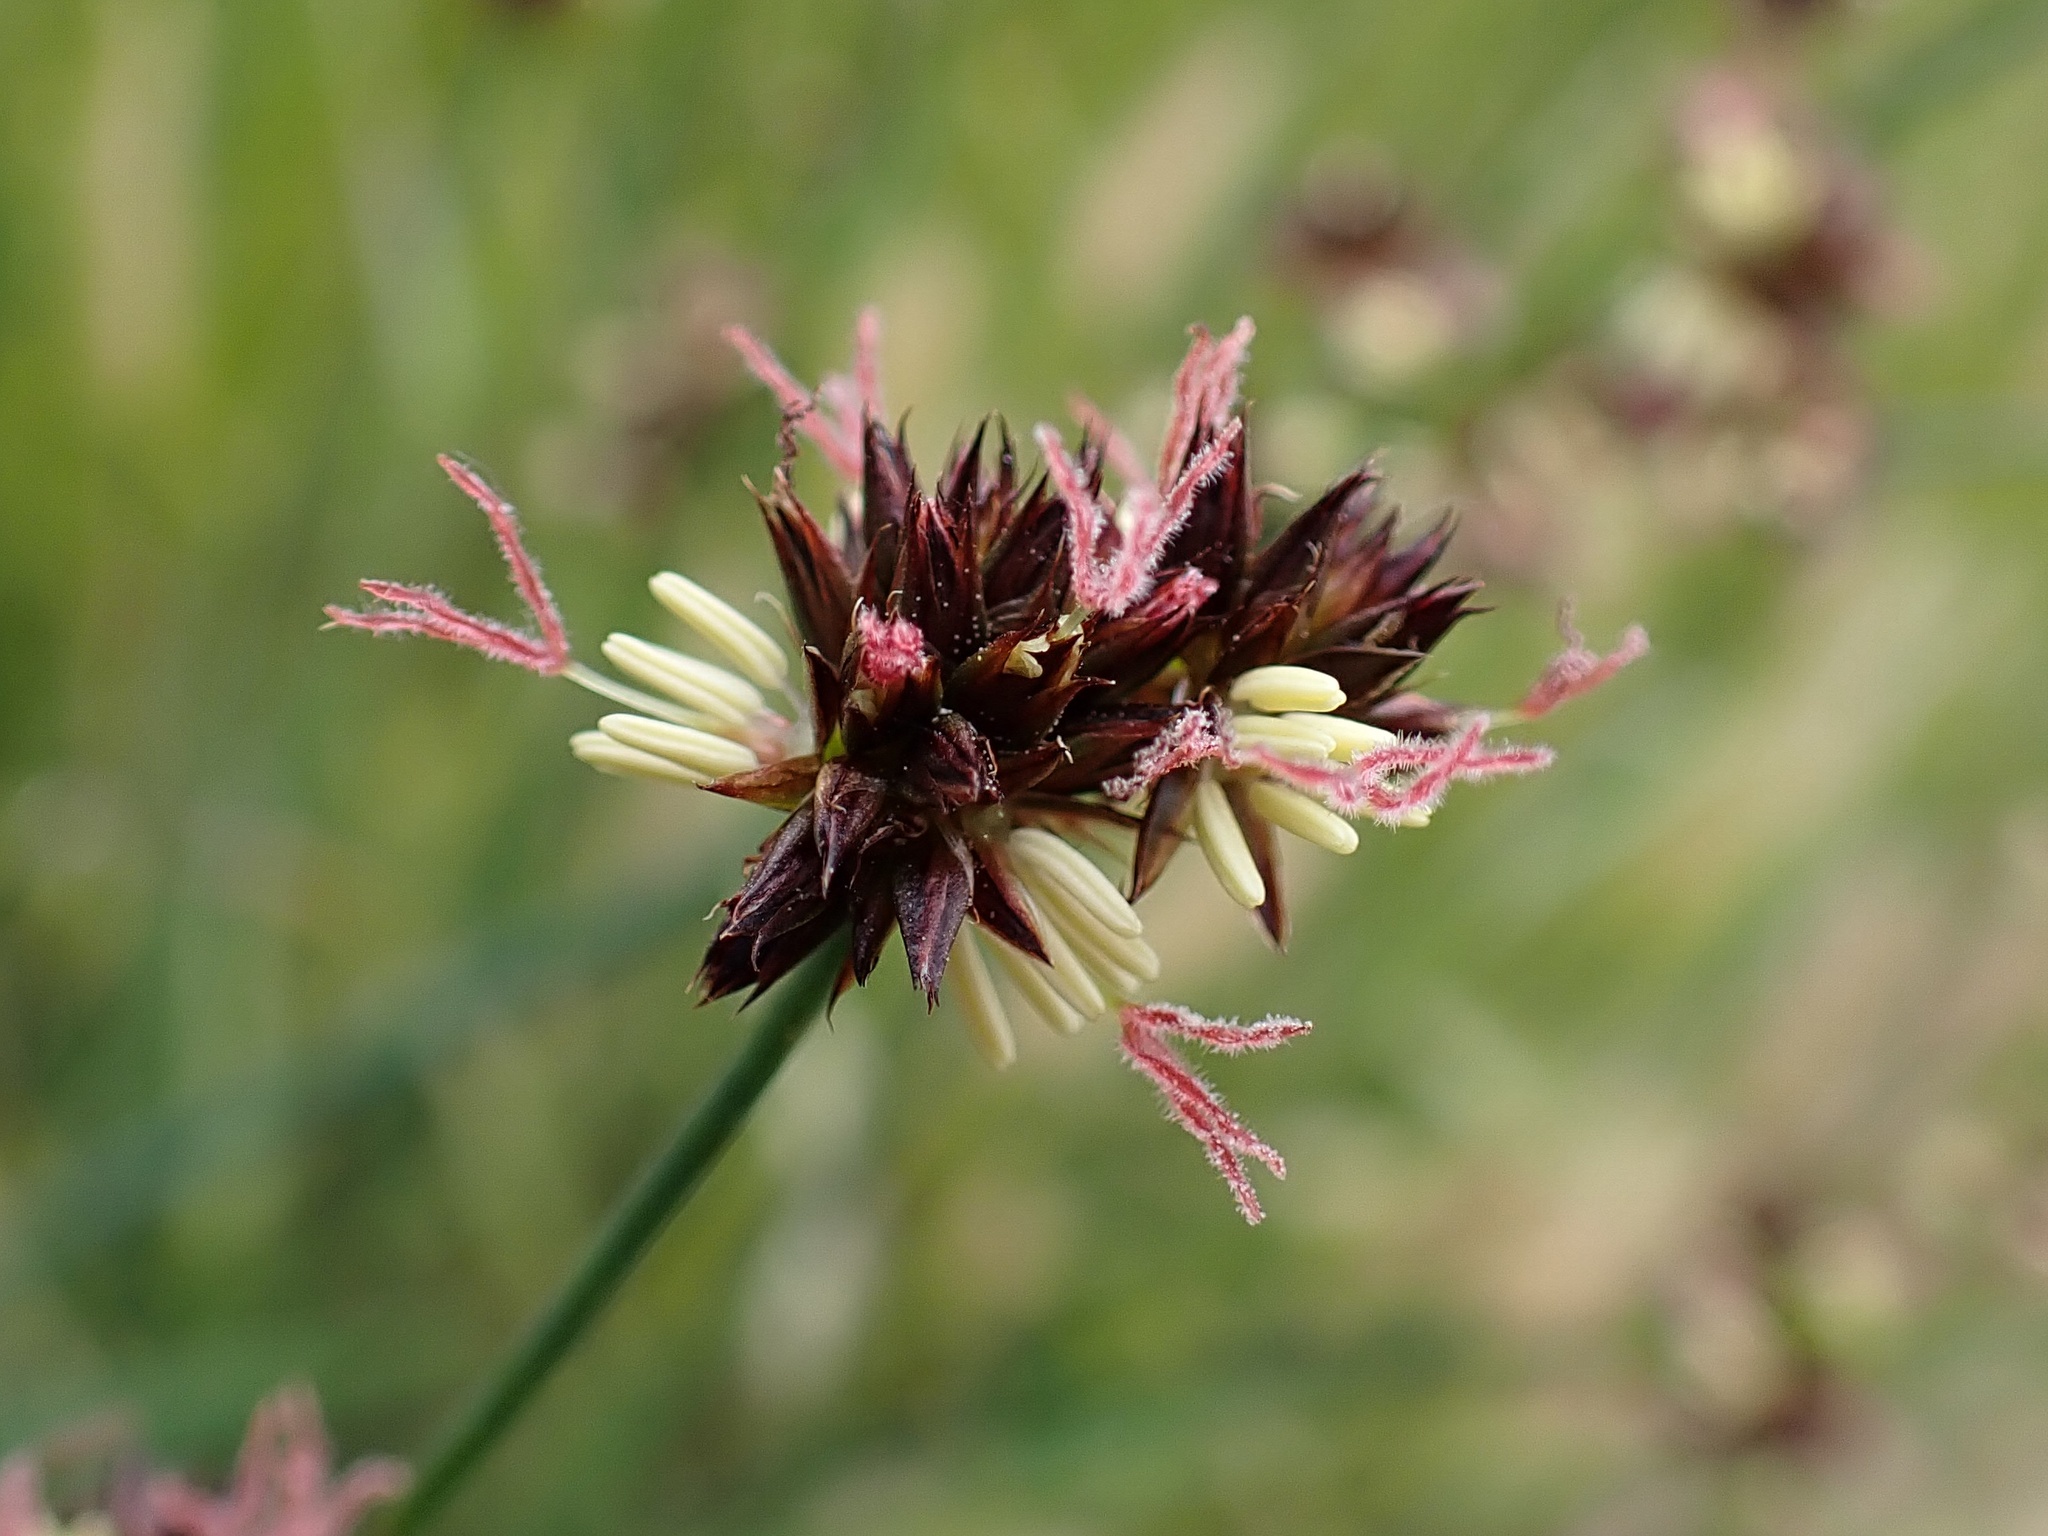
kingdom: Plantae
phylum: Tracheophyta
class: Liliopsida
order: Poales
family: Juncaceae
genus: Juncus
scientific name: Juncus phaeocephalus
